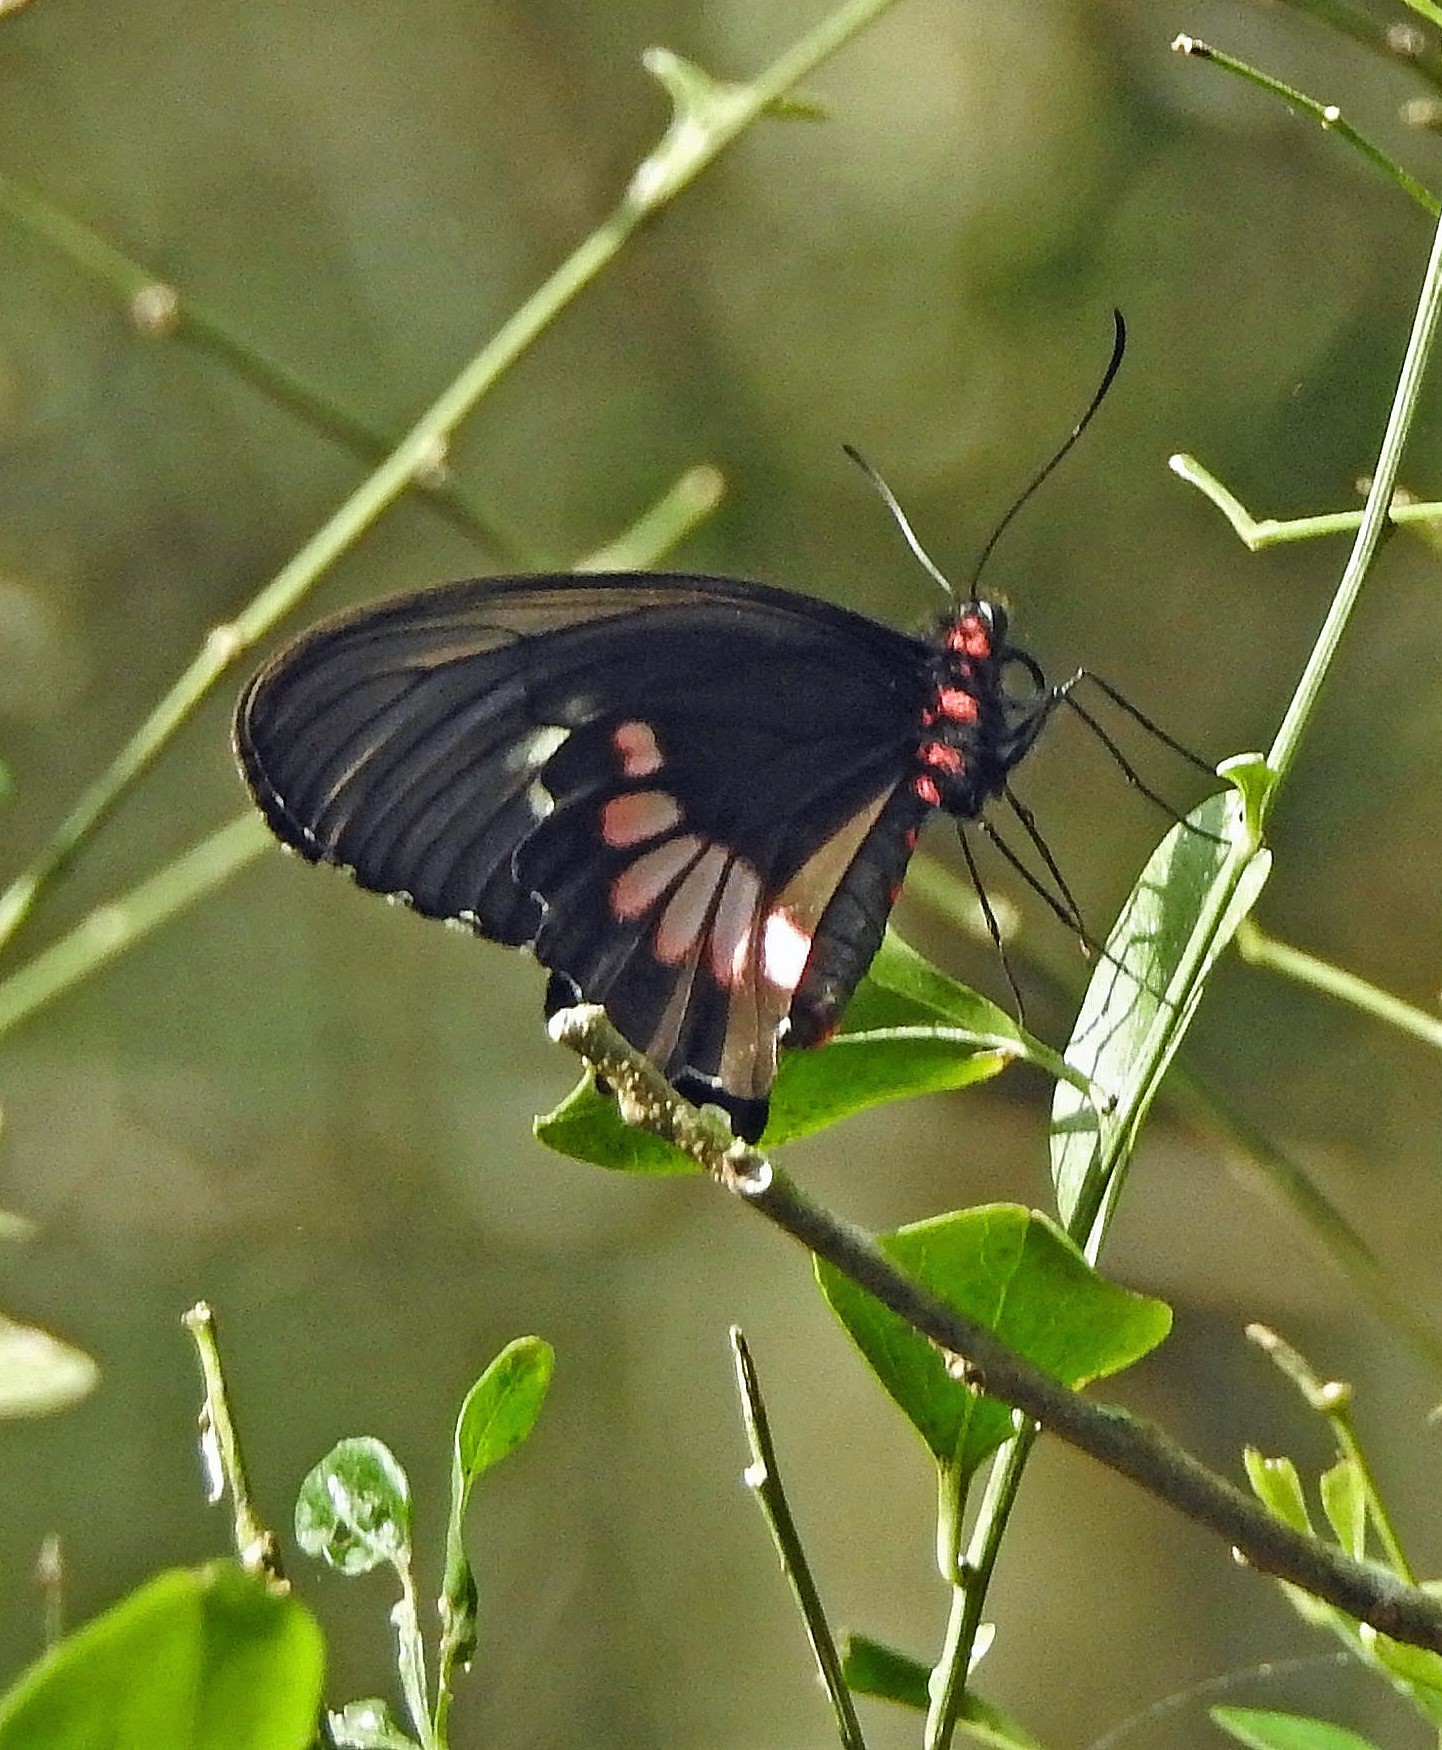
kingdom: Animalia
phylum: Arthropoda
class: Insecta
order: Lepidoptera
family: Papilionidae
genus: Parides
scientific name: Parides anchises
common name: Cattle heart
